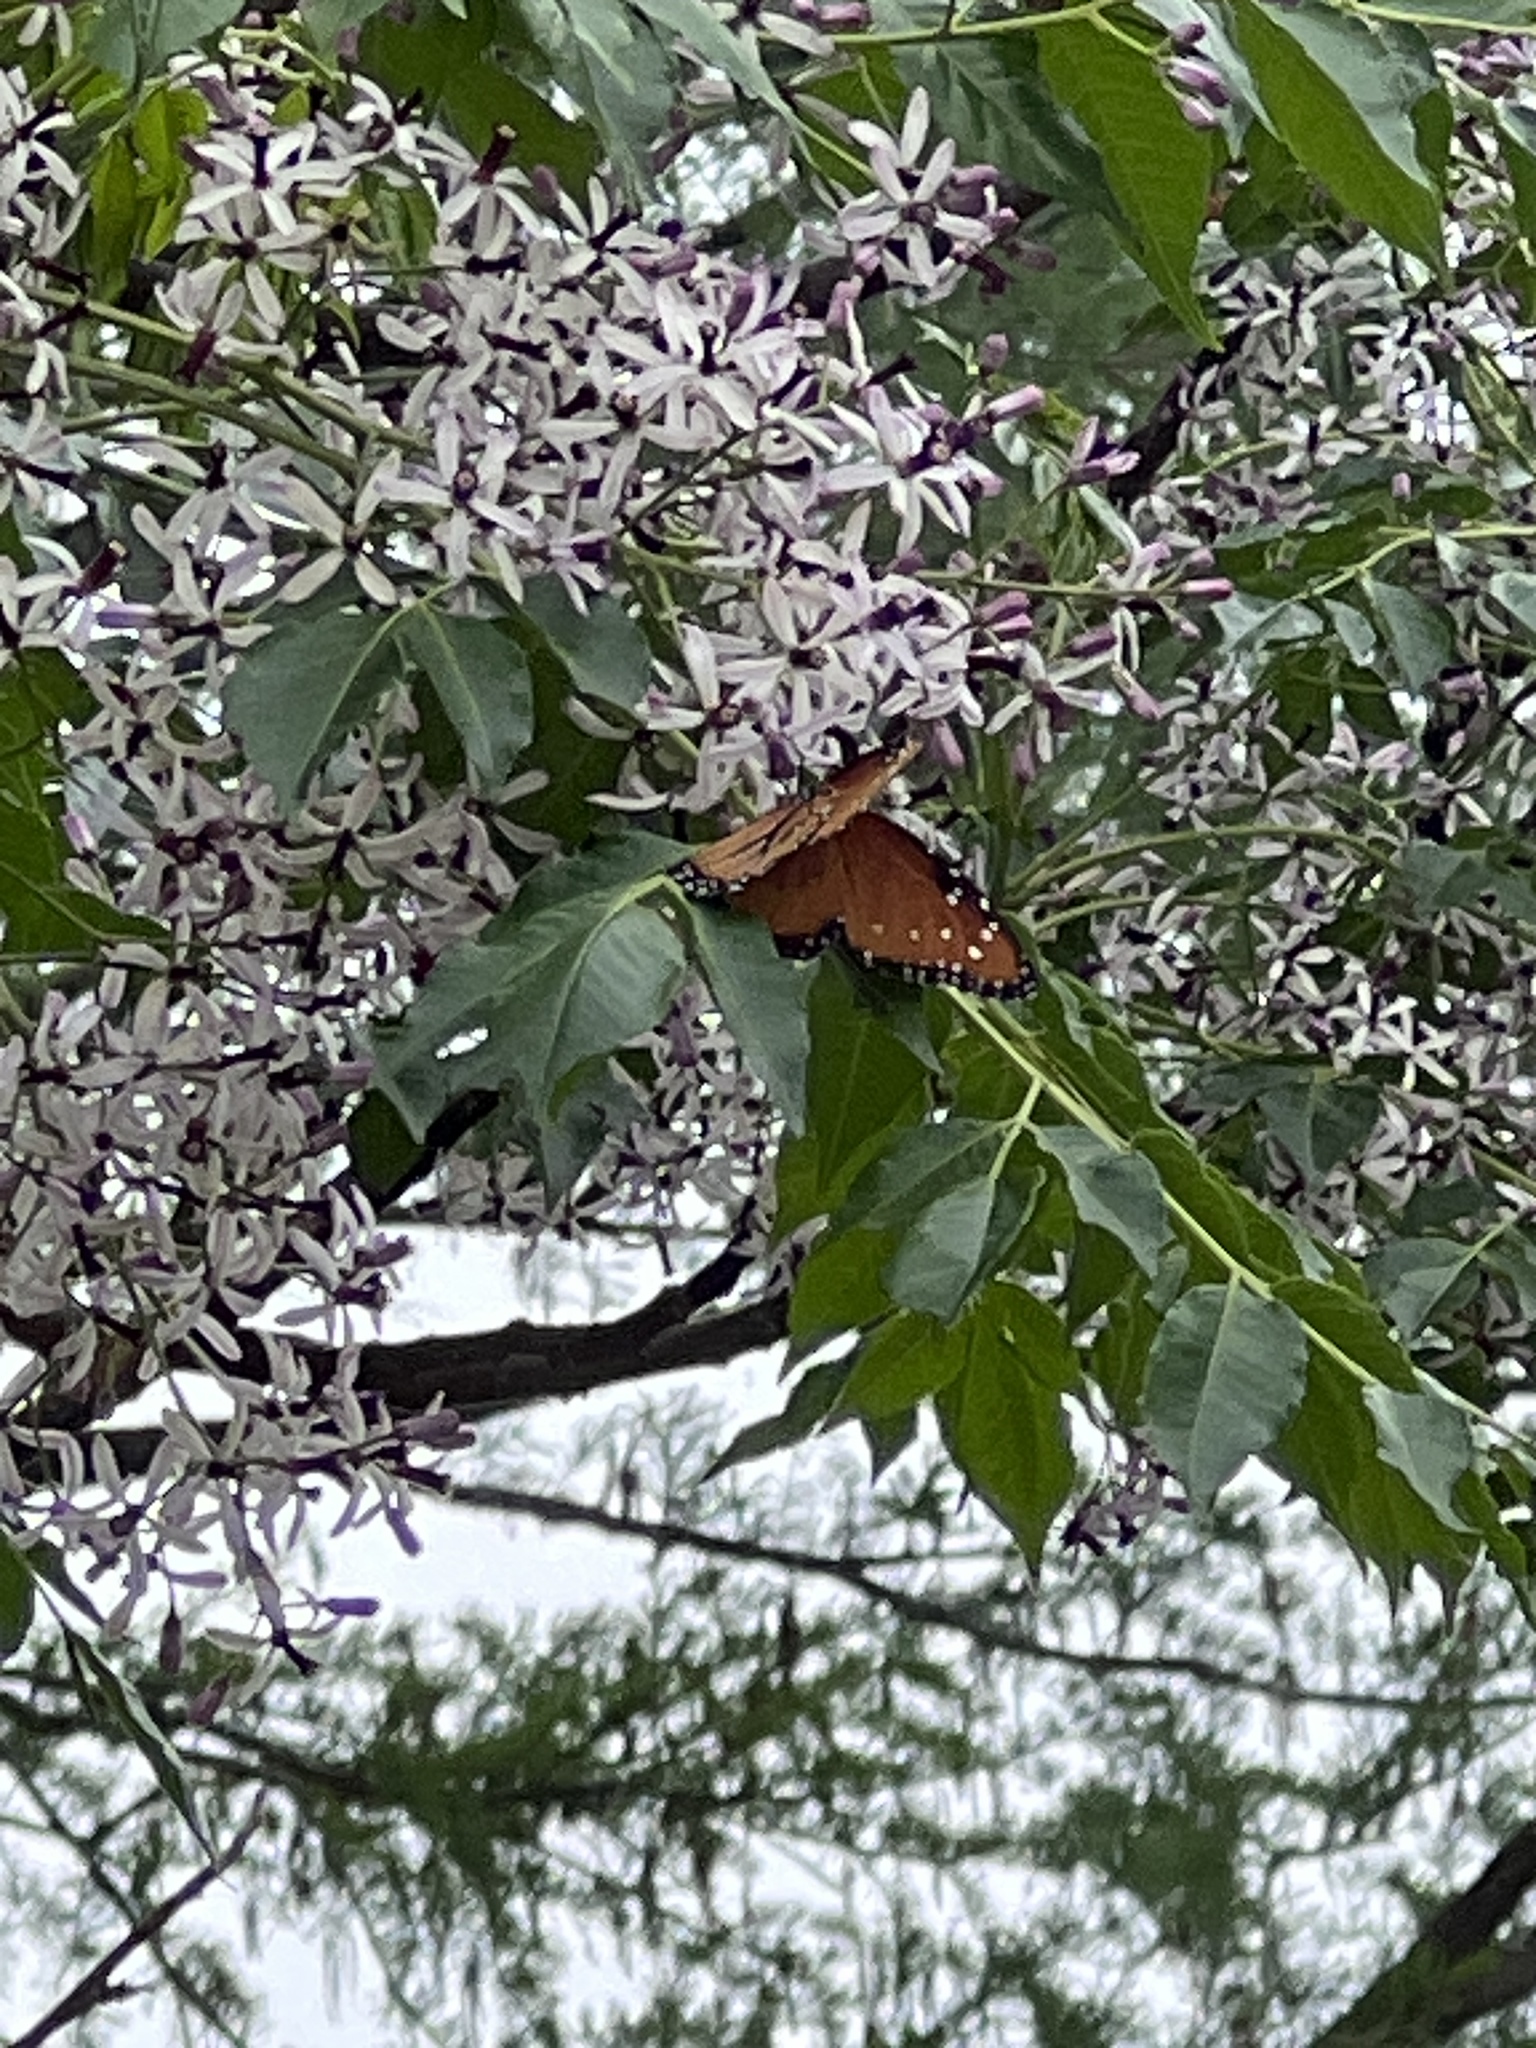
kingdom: Animalia
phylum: Arthropoda
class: Insecta
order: Lepidoptera
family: Nymphalidae
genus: Danaus
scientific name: Danaus gilippus
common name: Queen
